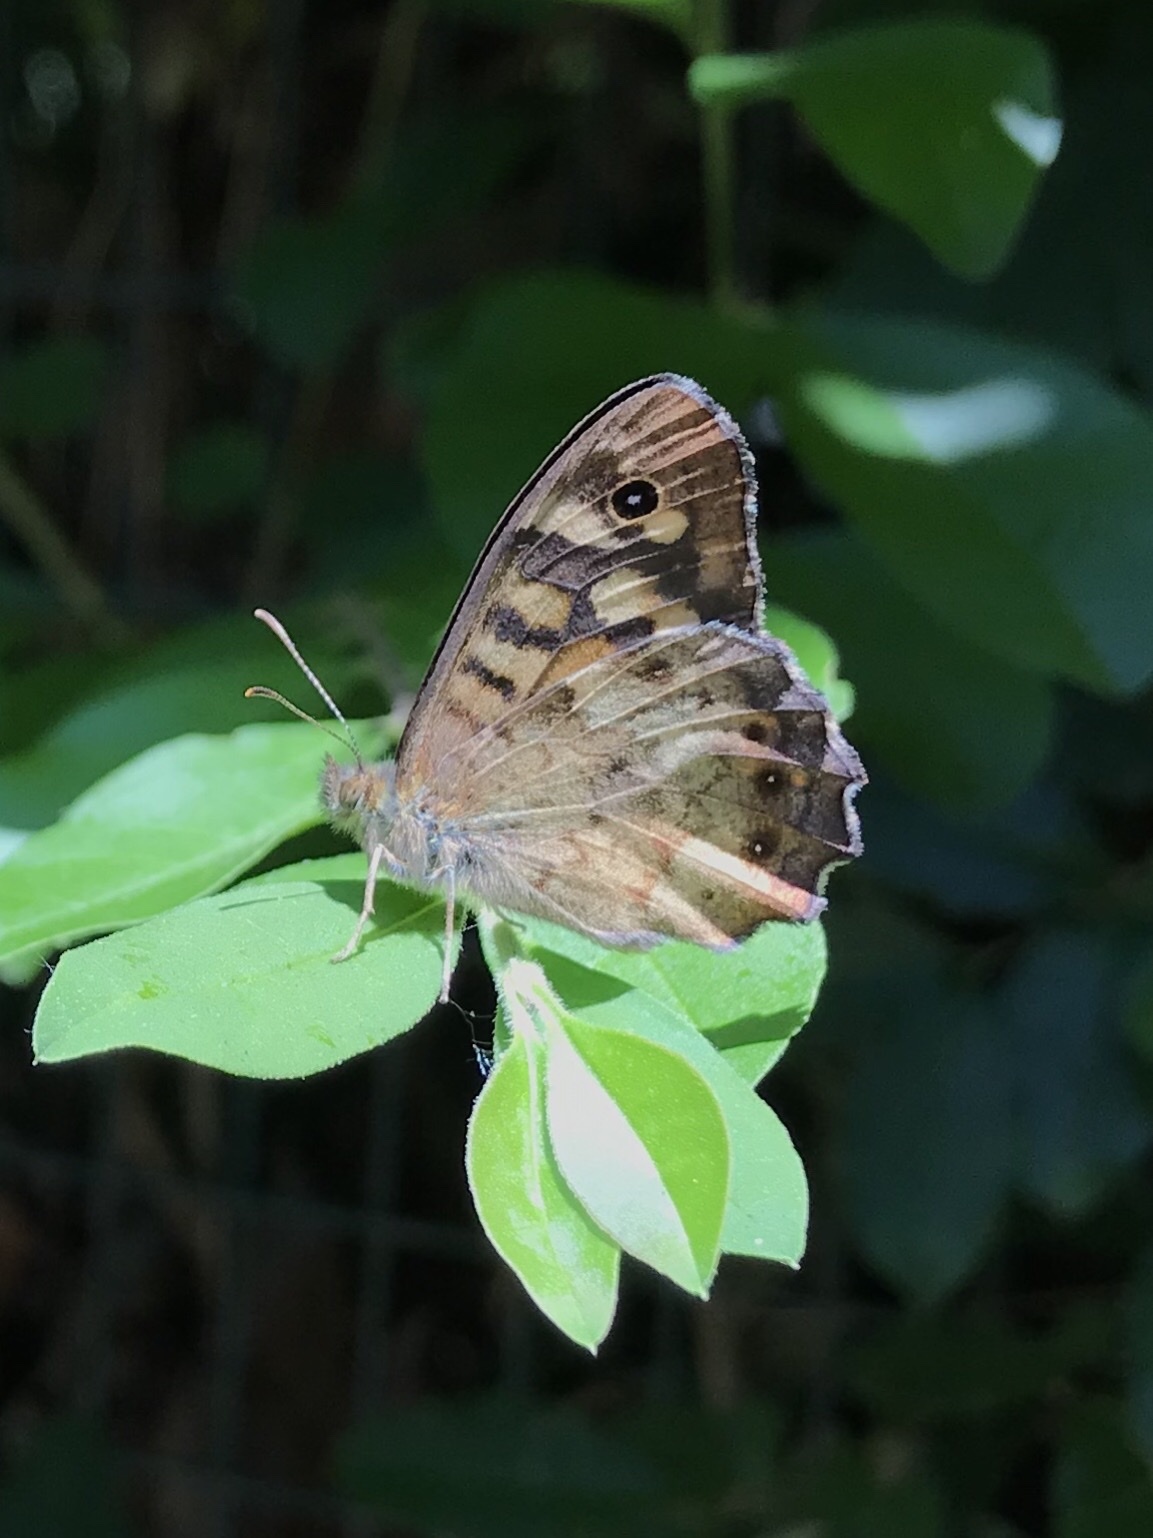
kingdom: Animalia
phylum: Arthropoda
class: Insecta
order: Lepidoptera
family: Nymphalidae
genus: Pararge
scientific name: Pararge aegeria
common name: Speckled wood
